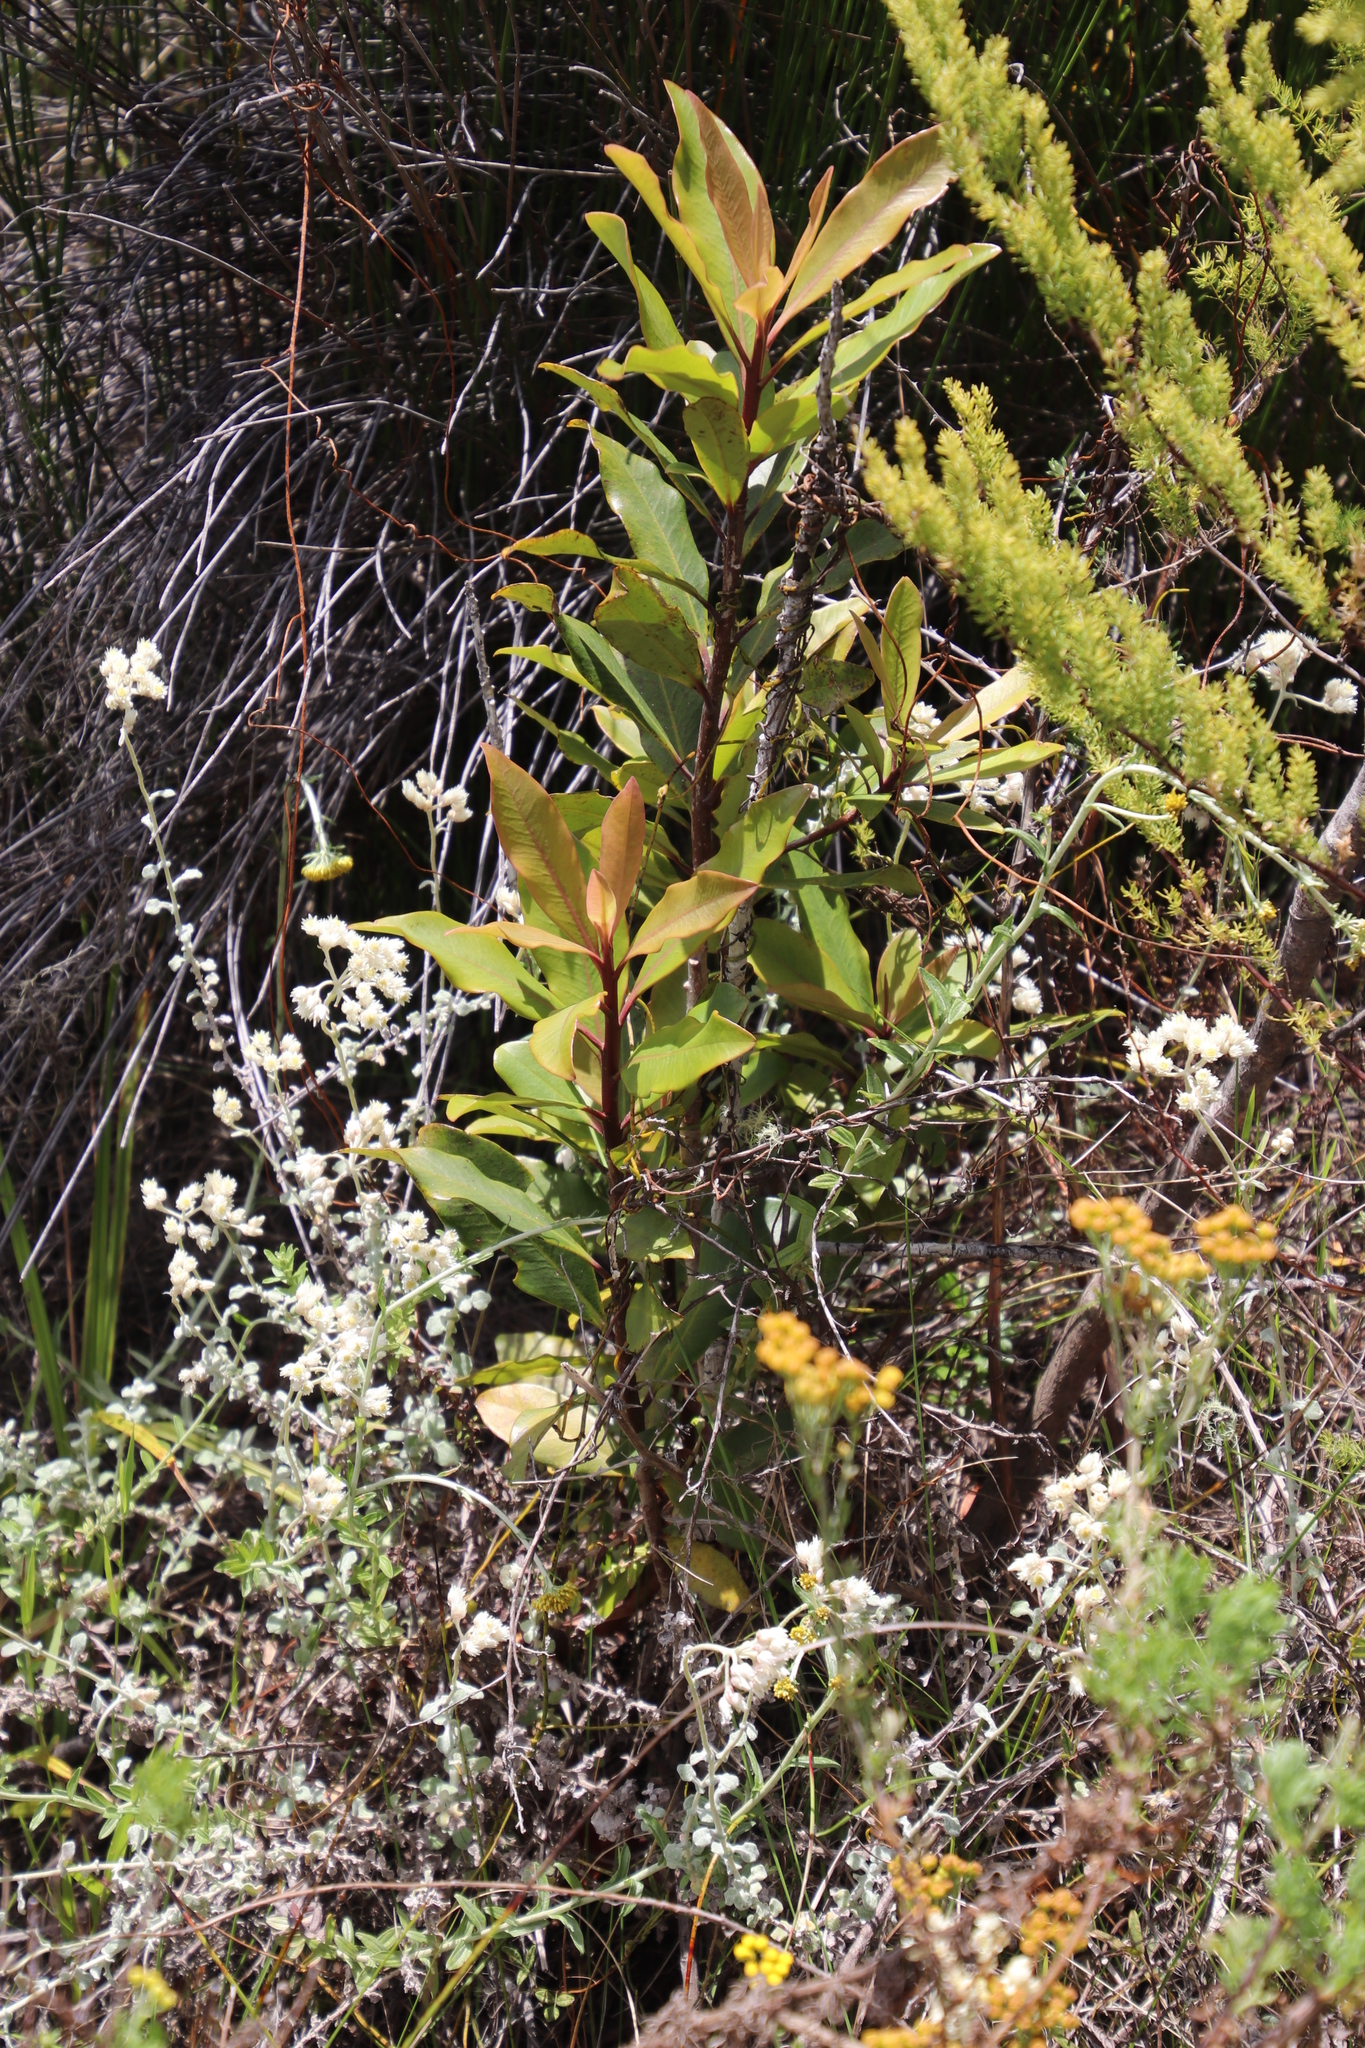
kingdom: Plantae
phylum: Tracheophyta
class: Magnoliopsida
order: Ericales
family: Primulaceae
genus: Myrsine
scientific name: Myrsine melanophloeos
